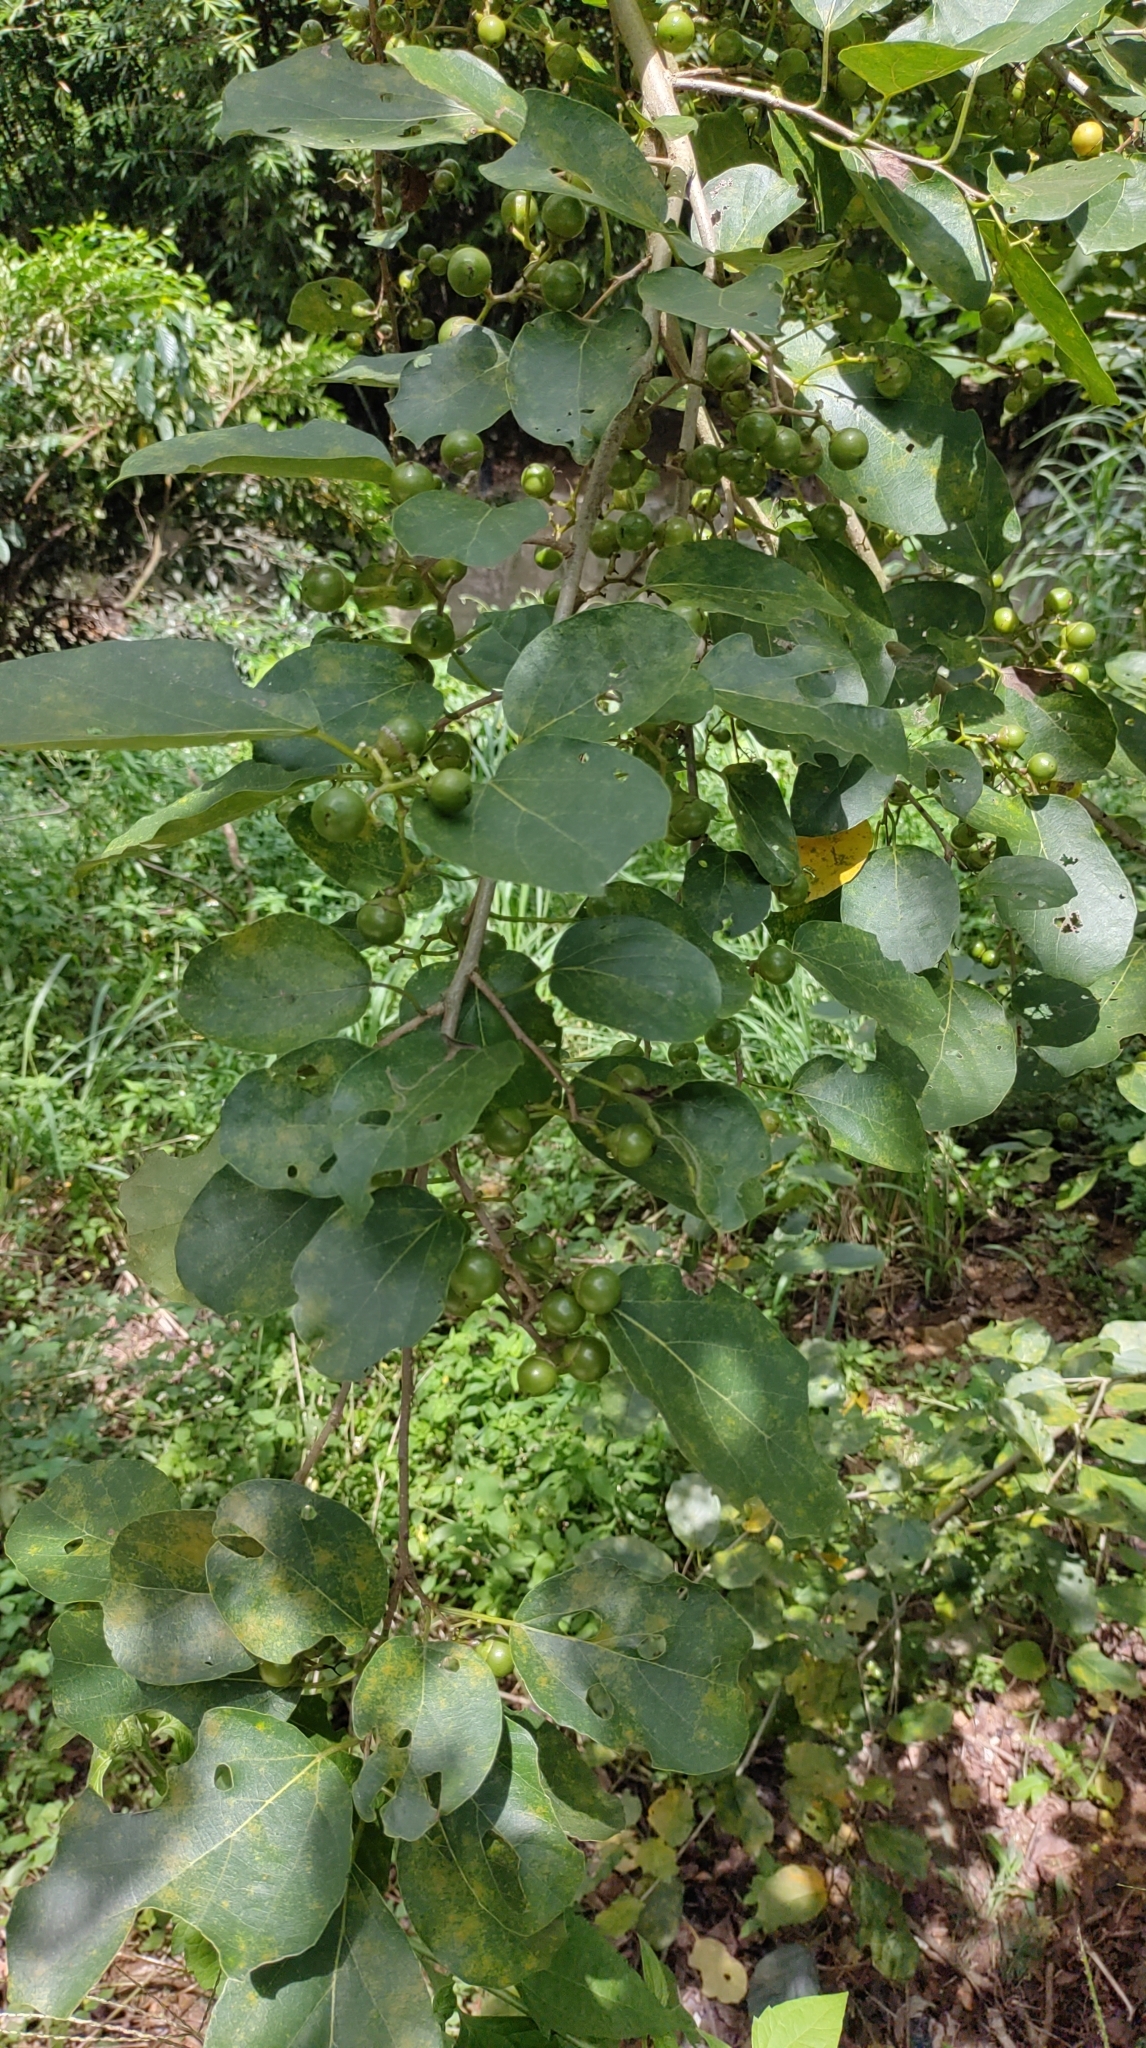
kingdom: Plantae
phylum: Tracheophyta
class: Magnoliopsida
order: Boraginales
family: Cordiaceae
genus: Cordia
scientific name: Cordia dichotoma
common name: Fragrant manjack
